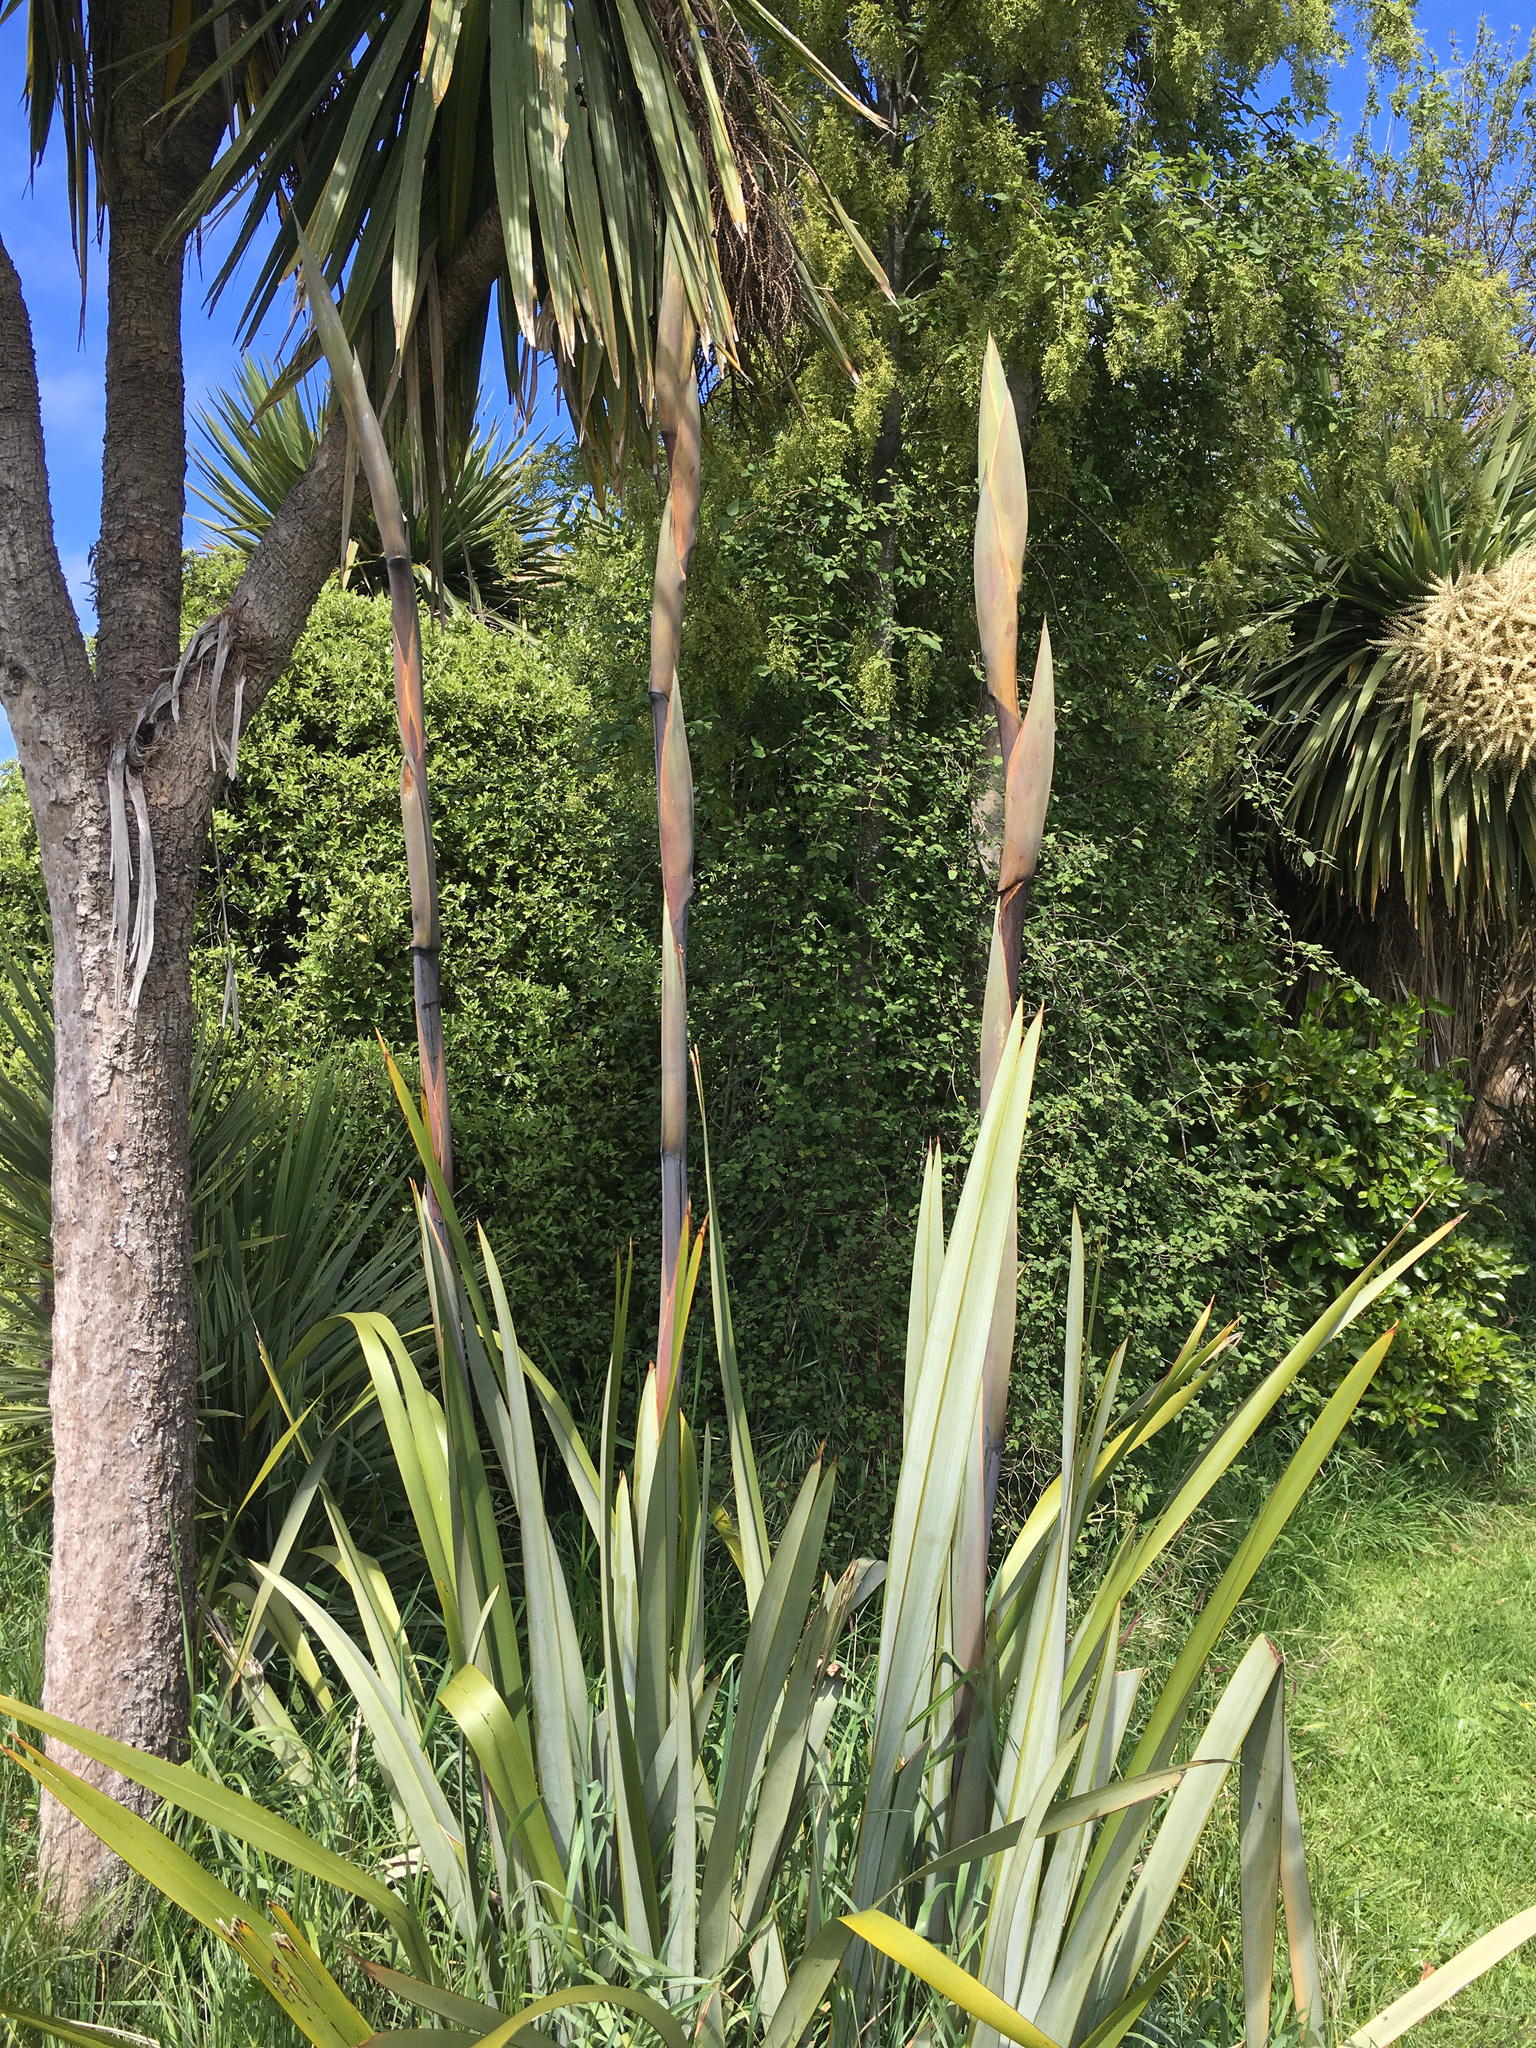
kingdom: Plantae
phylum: Tracheophyta
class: Liliopsida
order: Asparagales
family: Asphodelaceae
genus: Phormium
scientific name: Phormium tenax
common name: New zealand flax
